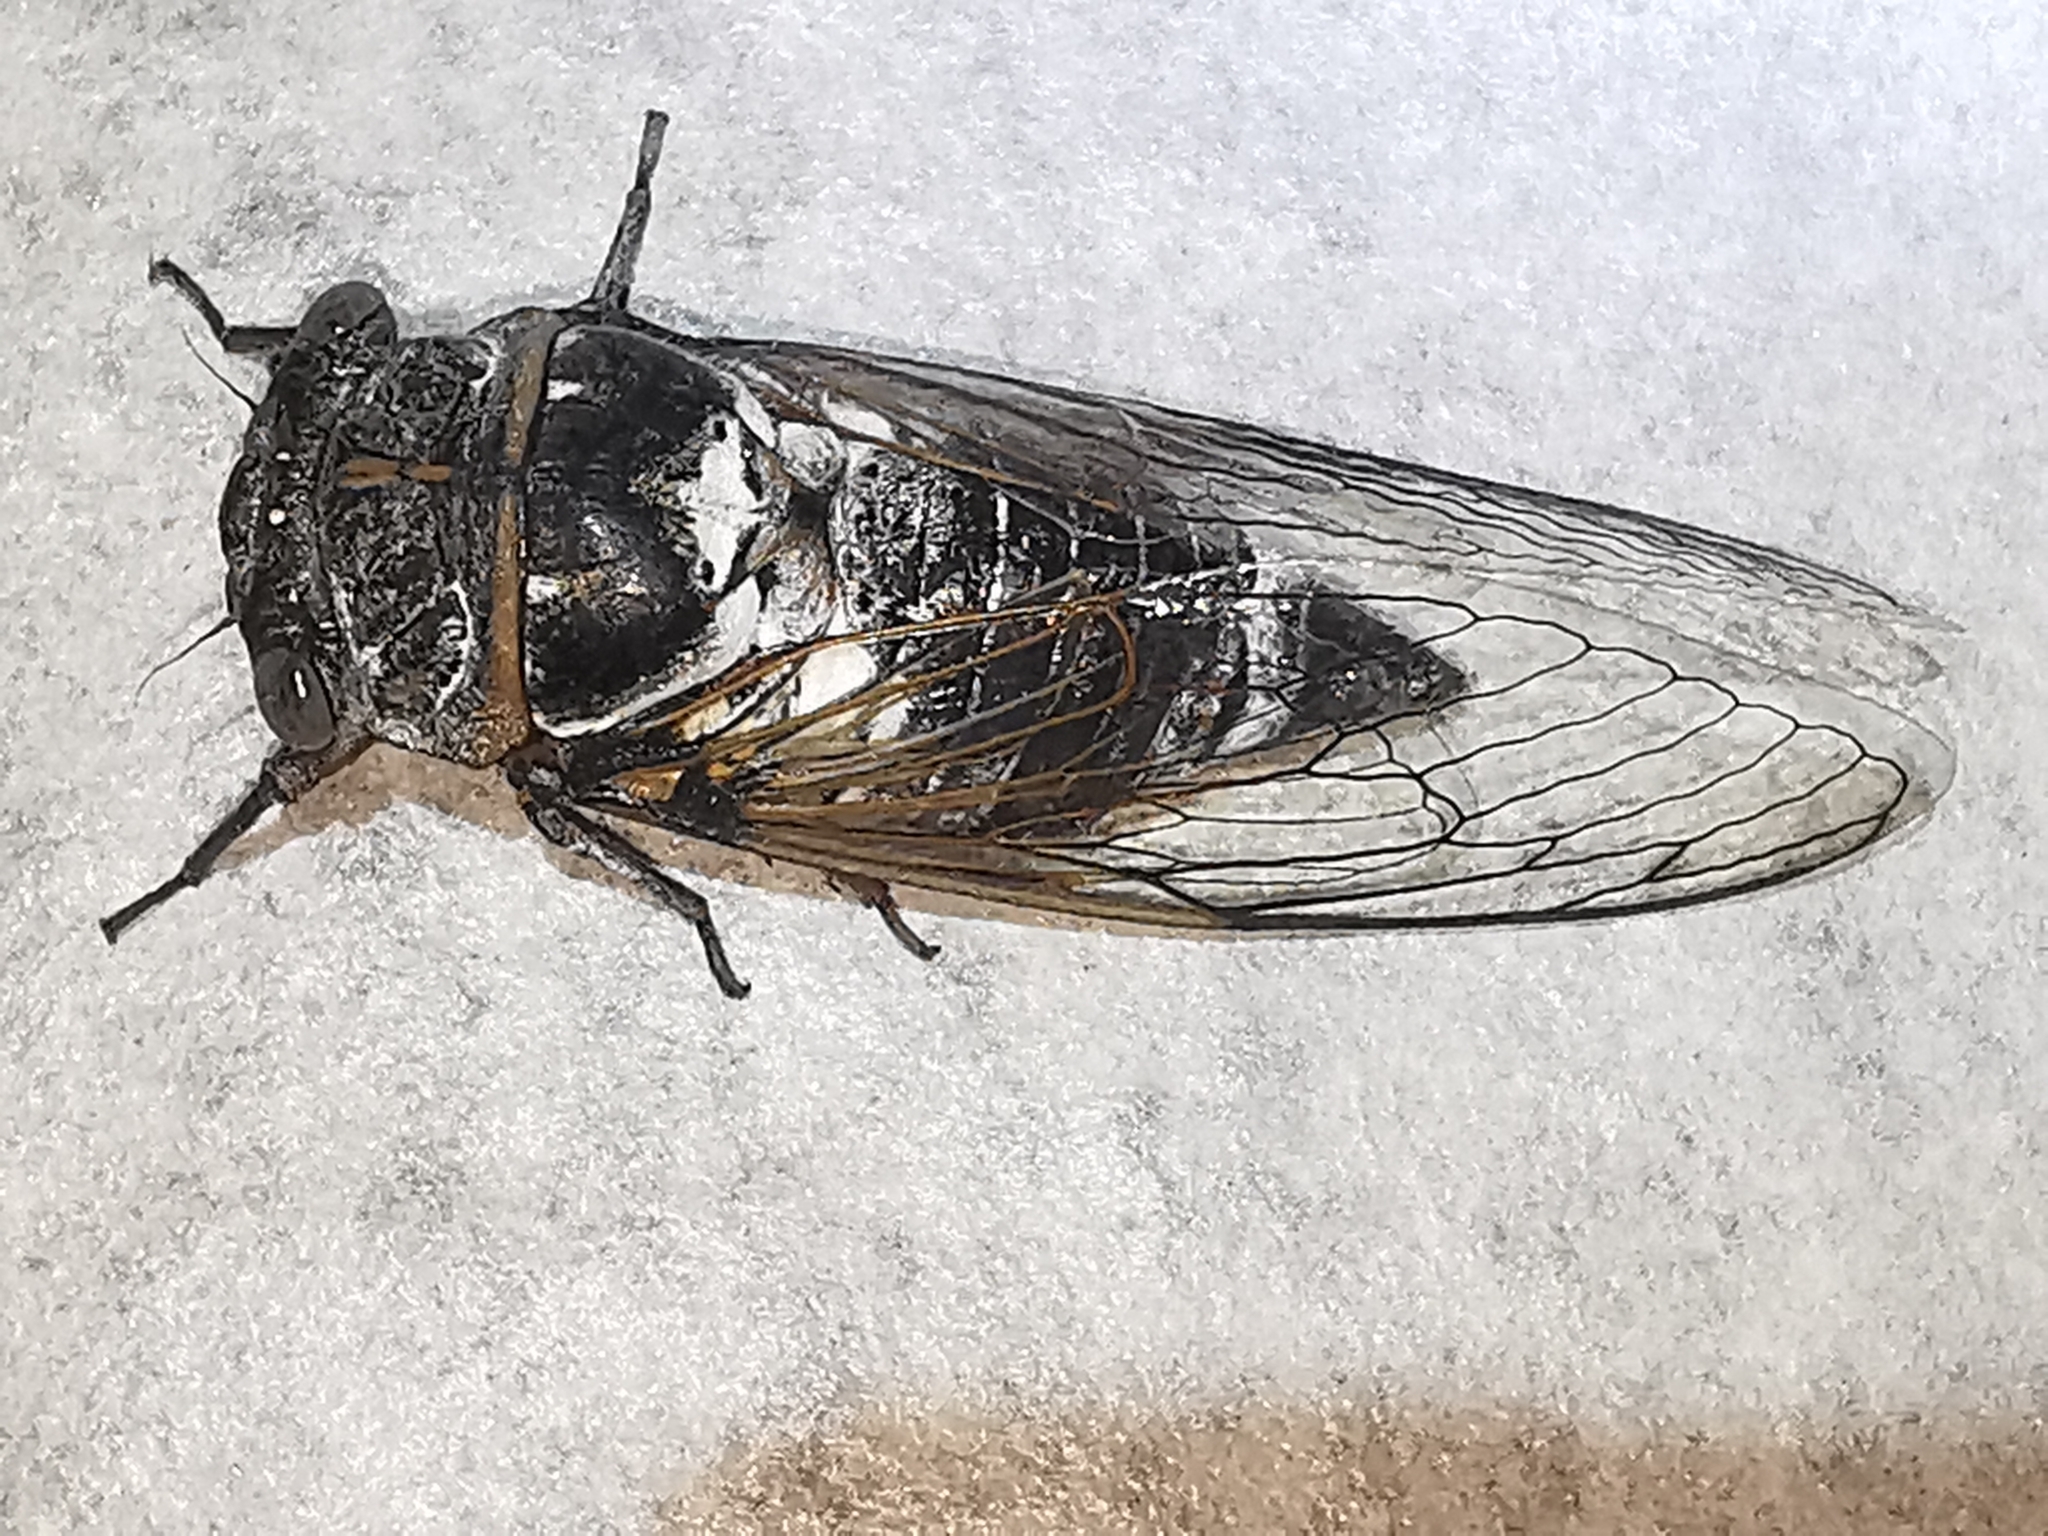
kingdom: Animalia
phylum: Arthropoda
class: Insecta
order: Hemiptera
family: Cicadidae
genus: Lyristes
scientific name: Lyristes plebejus
